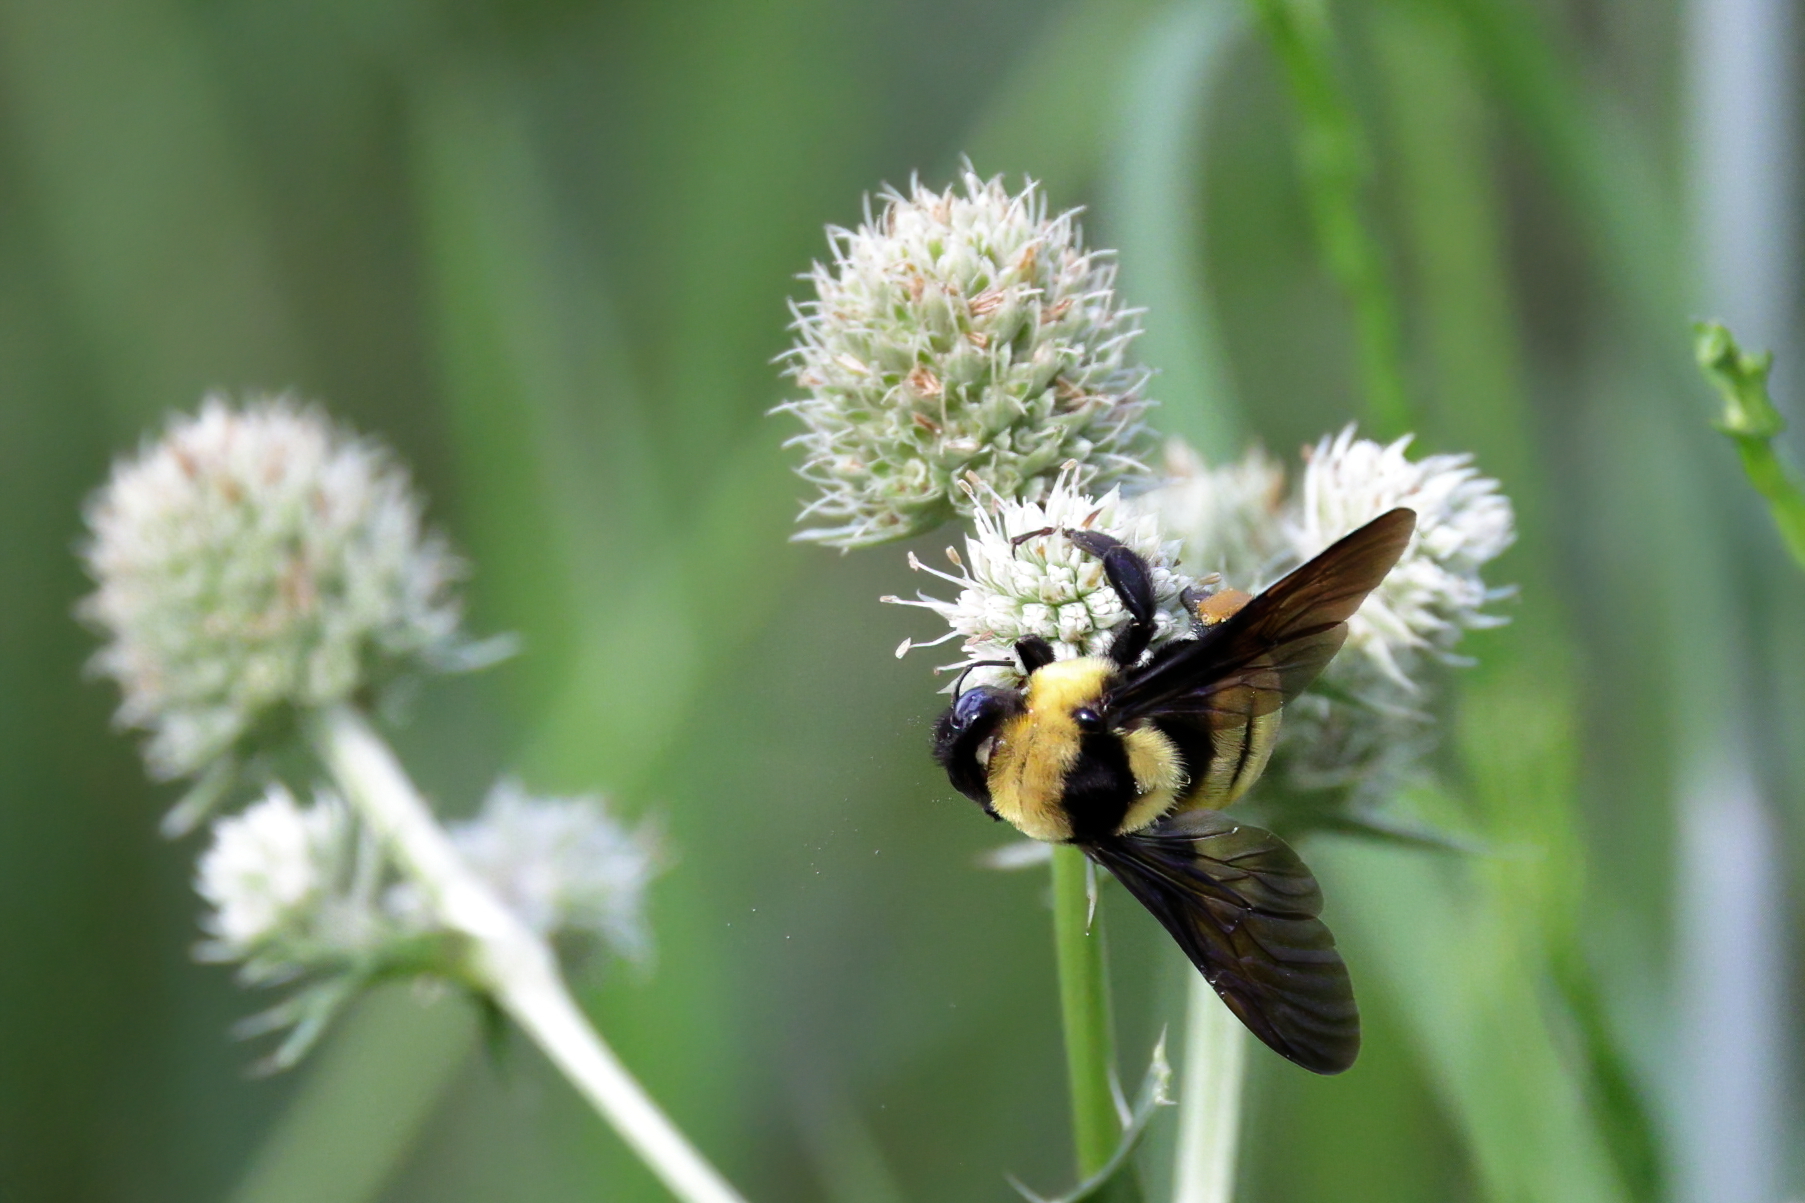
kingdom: Animalia
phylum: Arthropoda
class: Insecta
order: Hymenoptera
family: Apidae
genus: Bombus
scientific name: Bombus fraternus
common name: Southern plains bumble bee
